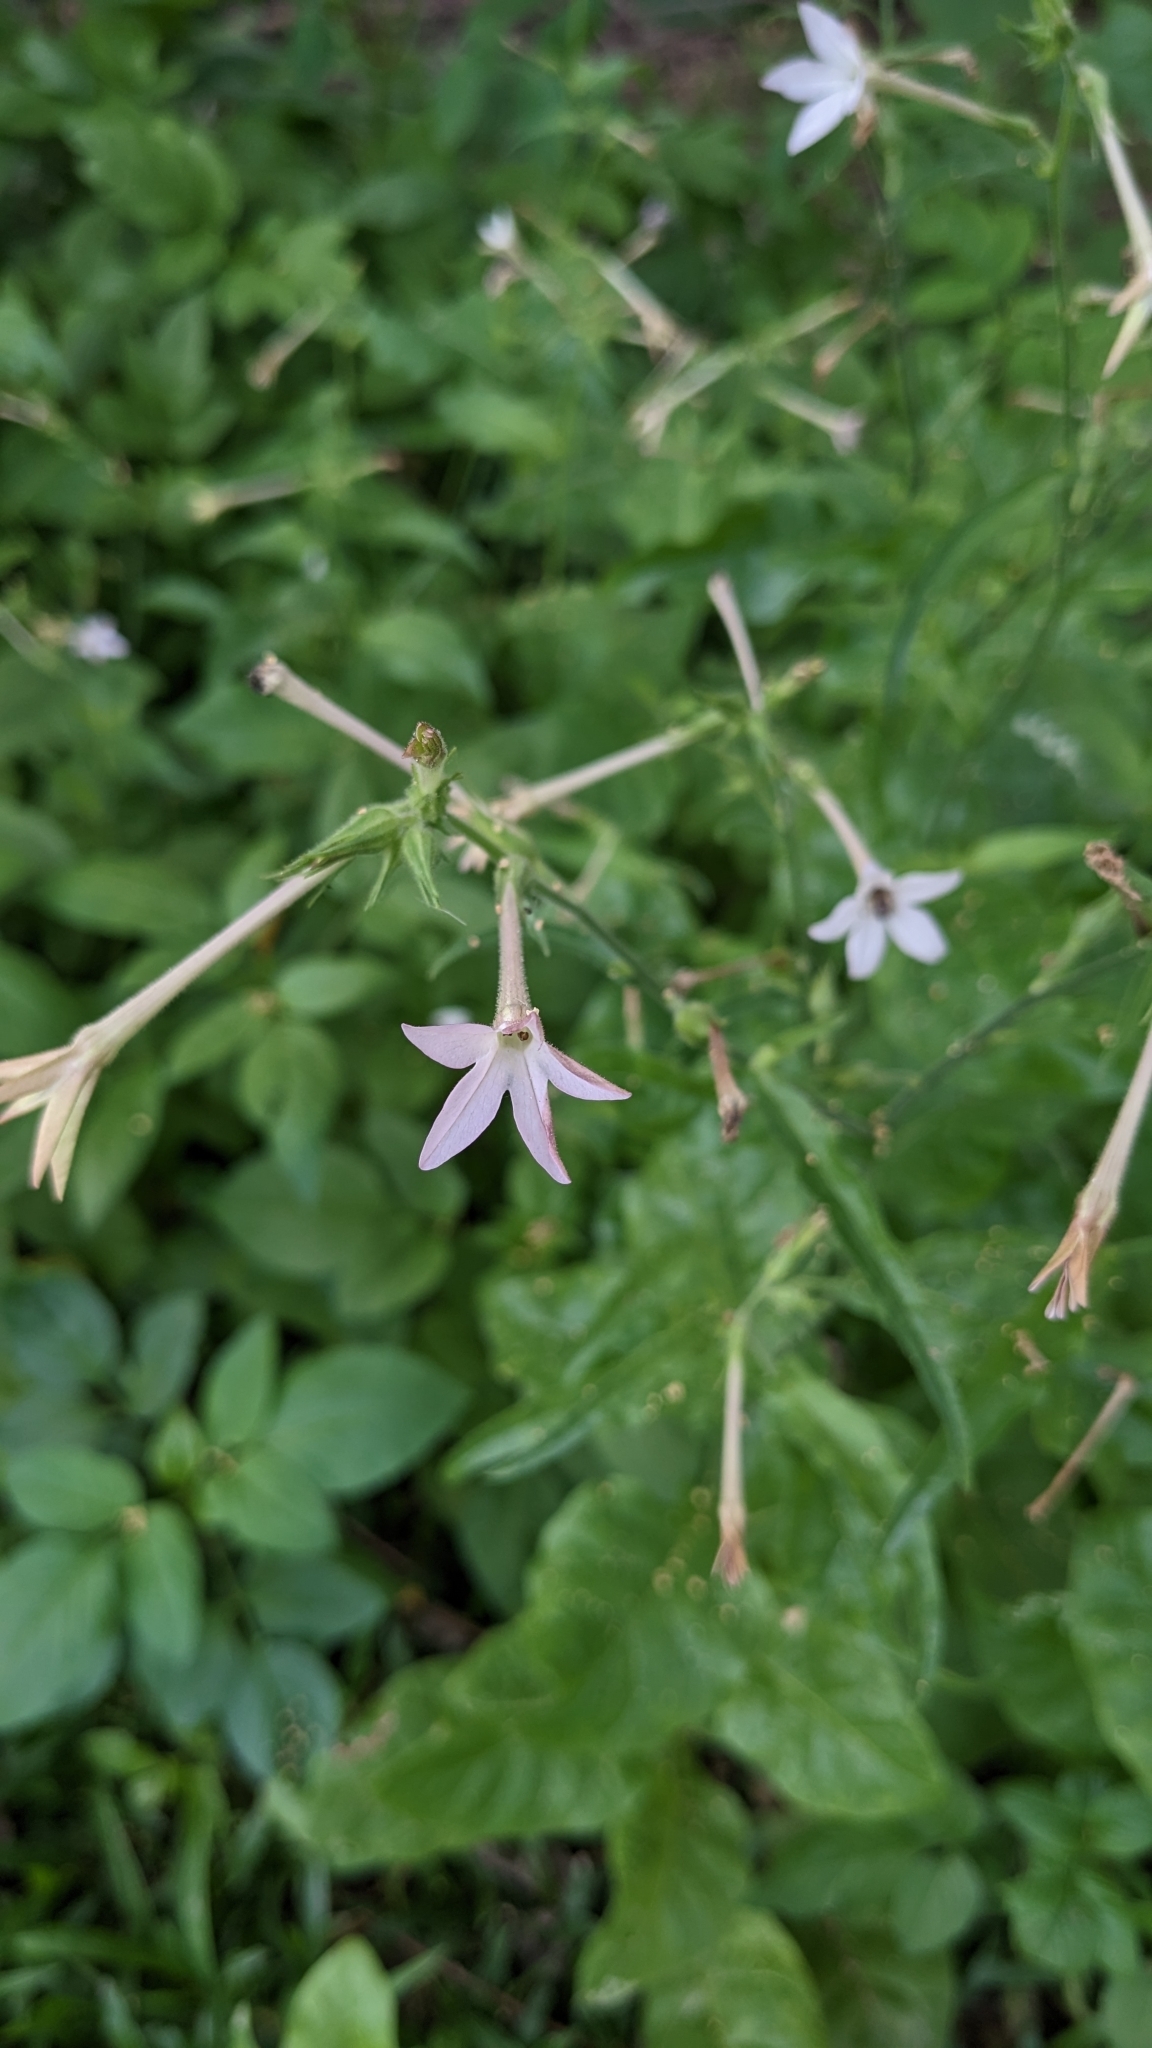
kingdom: Plantae
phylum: Tracheophyta
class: Magnoliopsida
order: Solanales
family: Solanaceae
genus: Nicotiana
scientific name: Nicotiana plumbaginifolia
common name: Tex-mex tobacco
